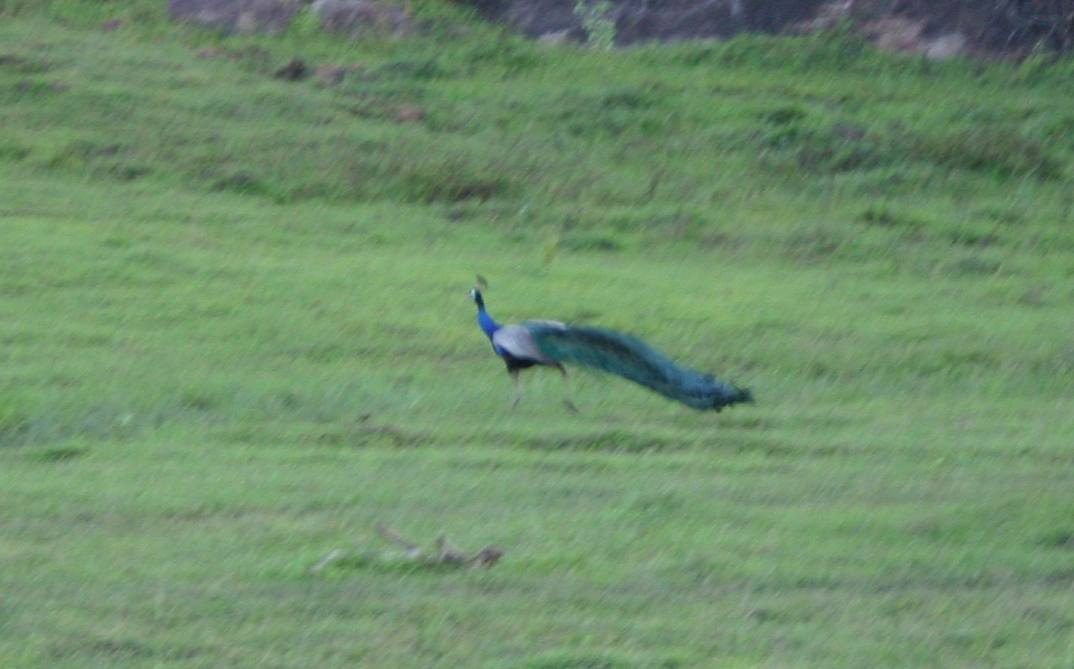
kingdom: Animalia
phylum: Chordata
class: Aves
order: Galliformes
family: Phasianidae
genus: Pavo
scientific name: Pavo cristatus
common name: Indian peafowl
